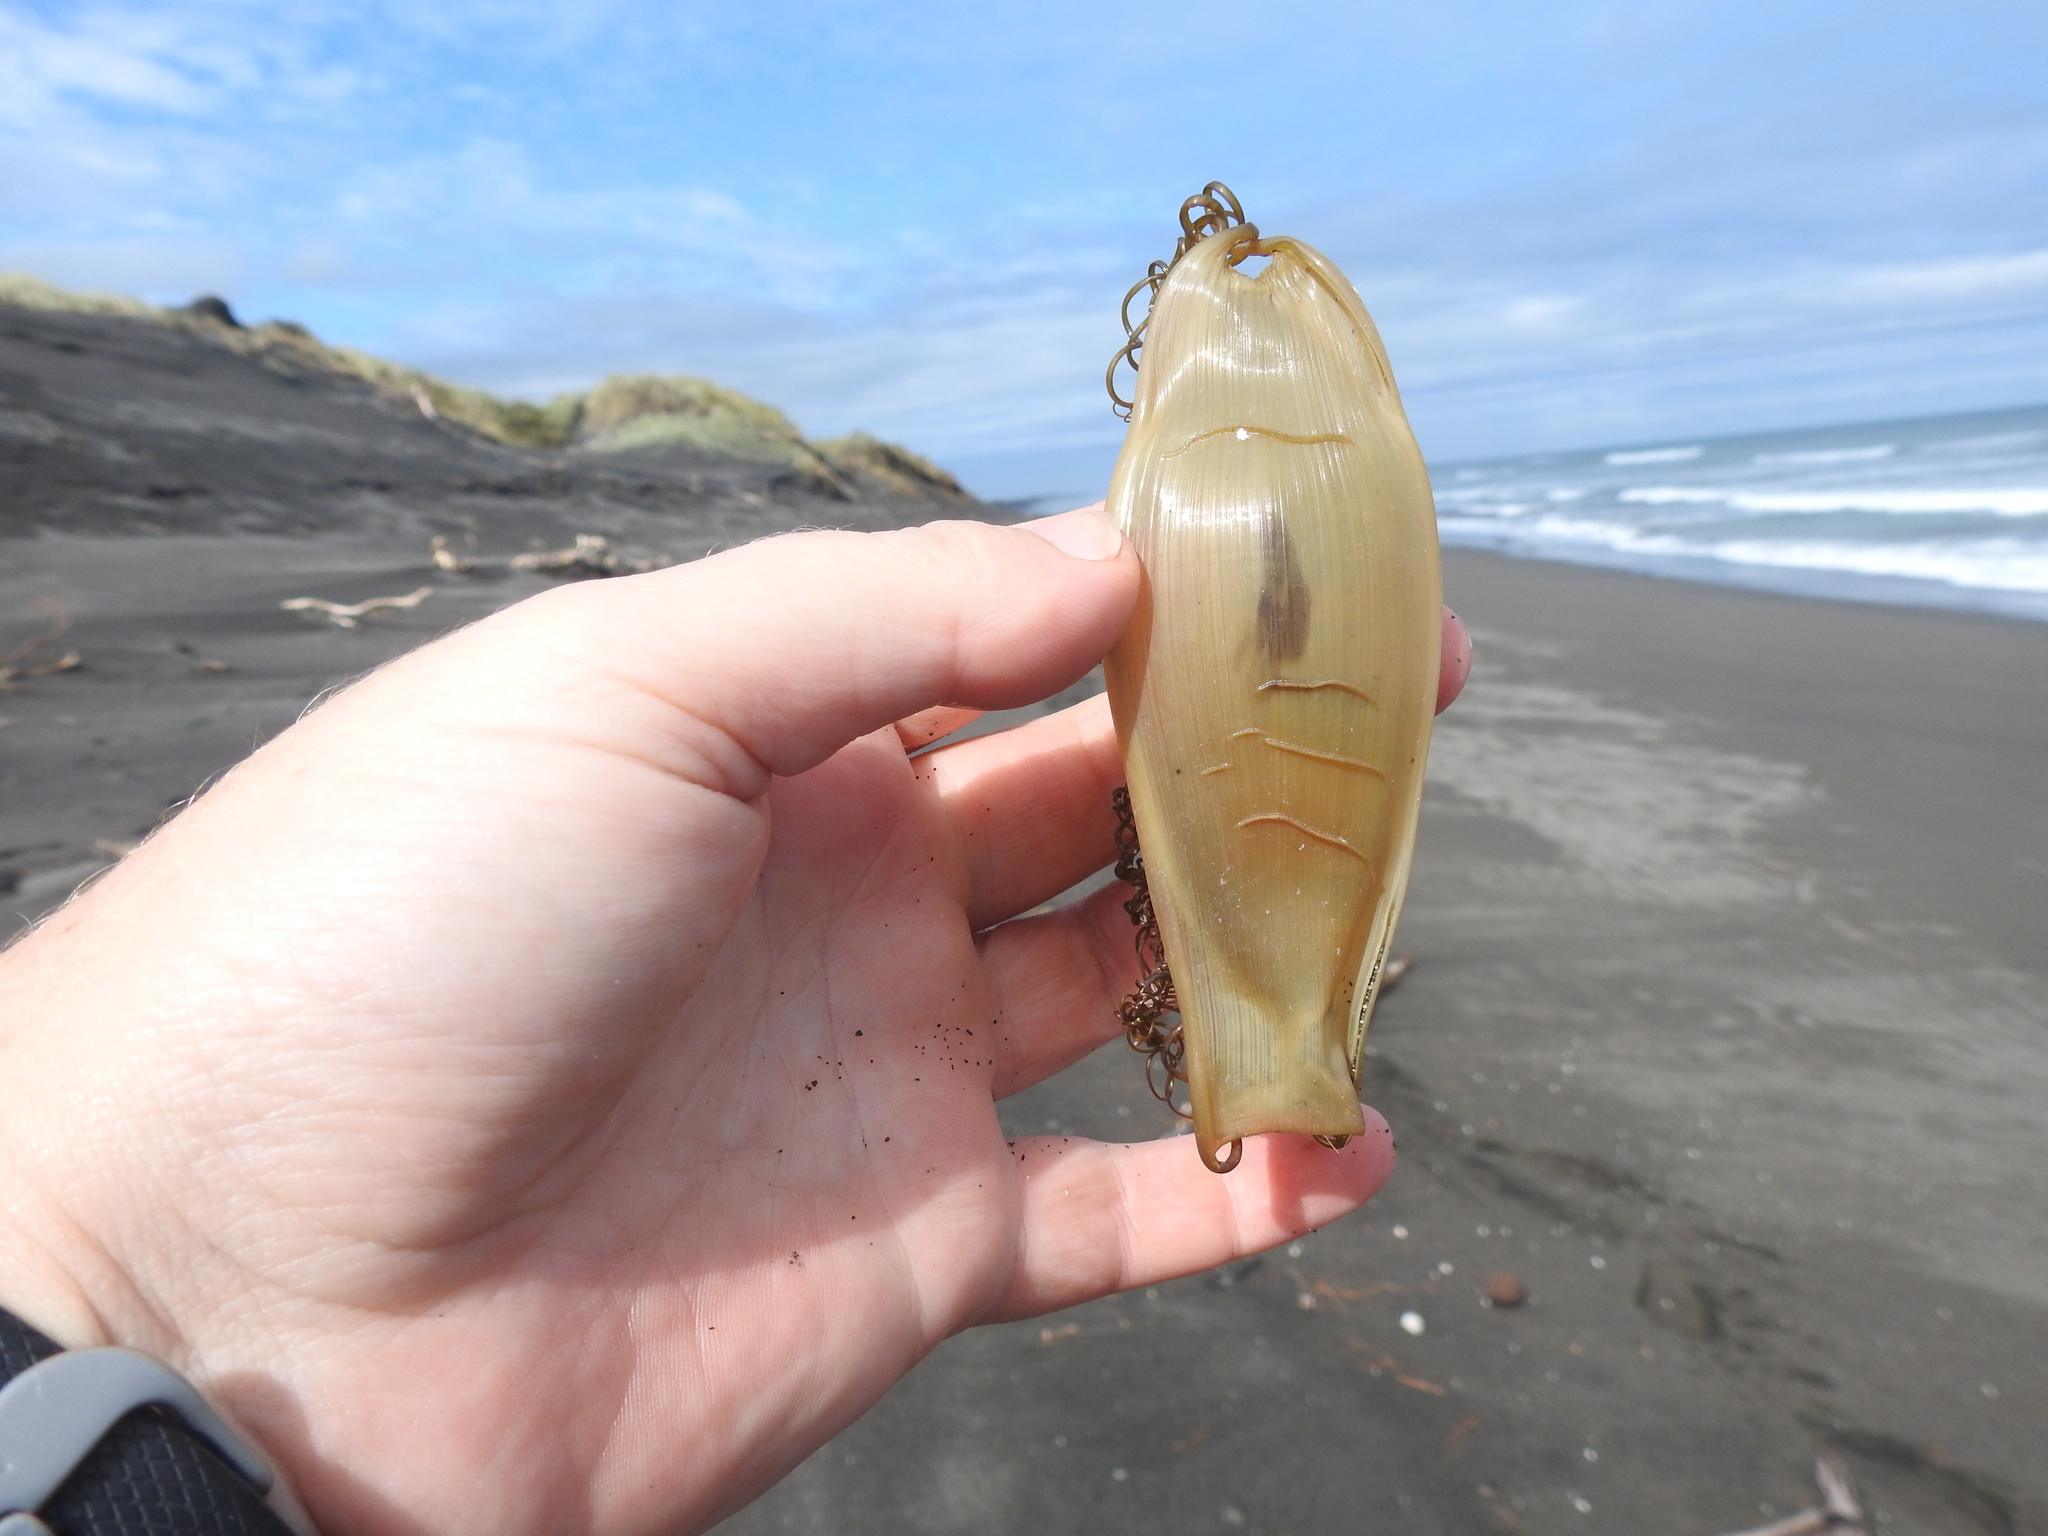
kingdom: Animalia
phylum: Chordata
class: Elasmobranchii
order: Carcharhiniformes
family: Scyliorhinidae
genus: Cephaloscyllium
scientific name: Cephaloscyllium isabellum
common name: Carpet shark
